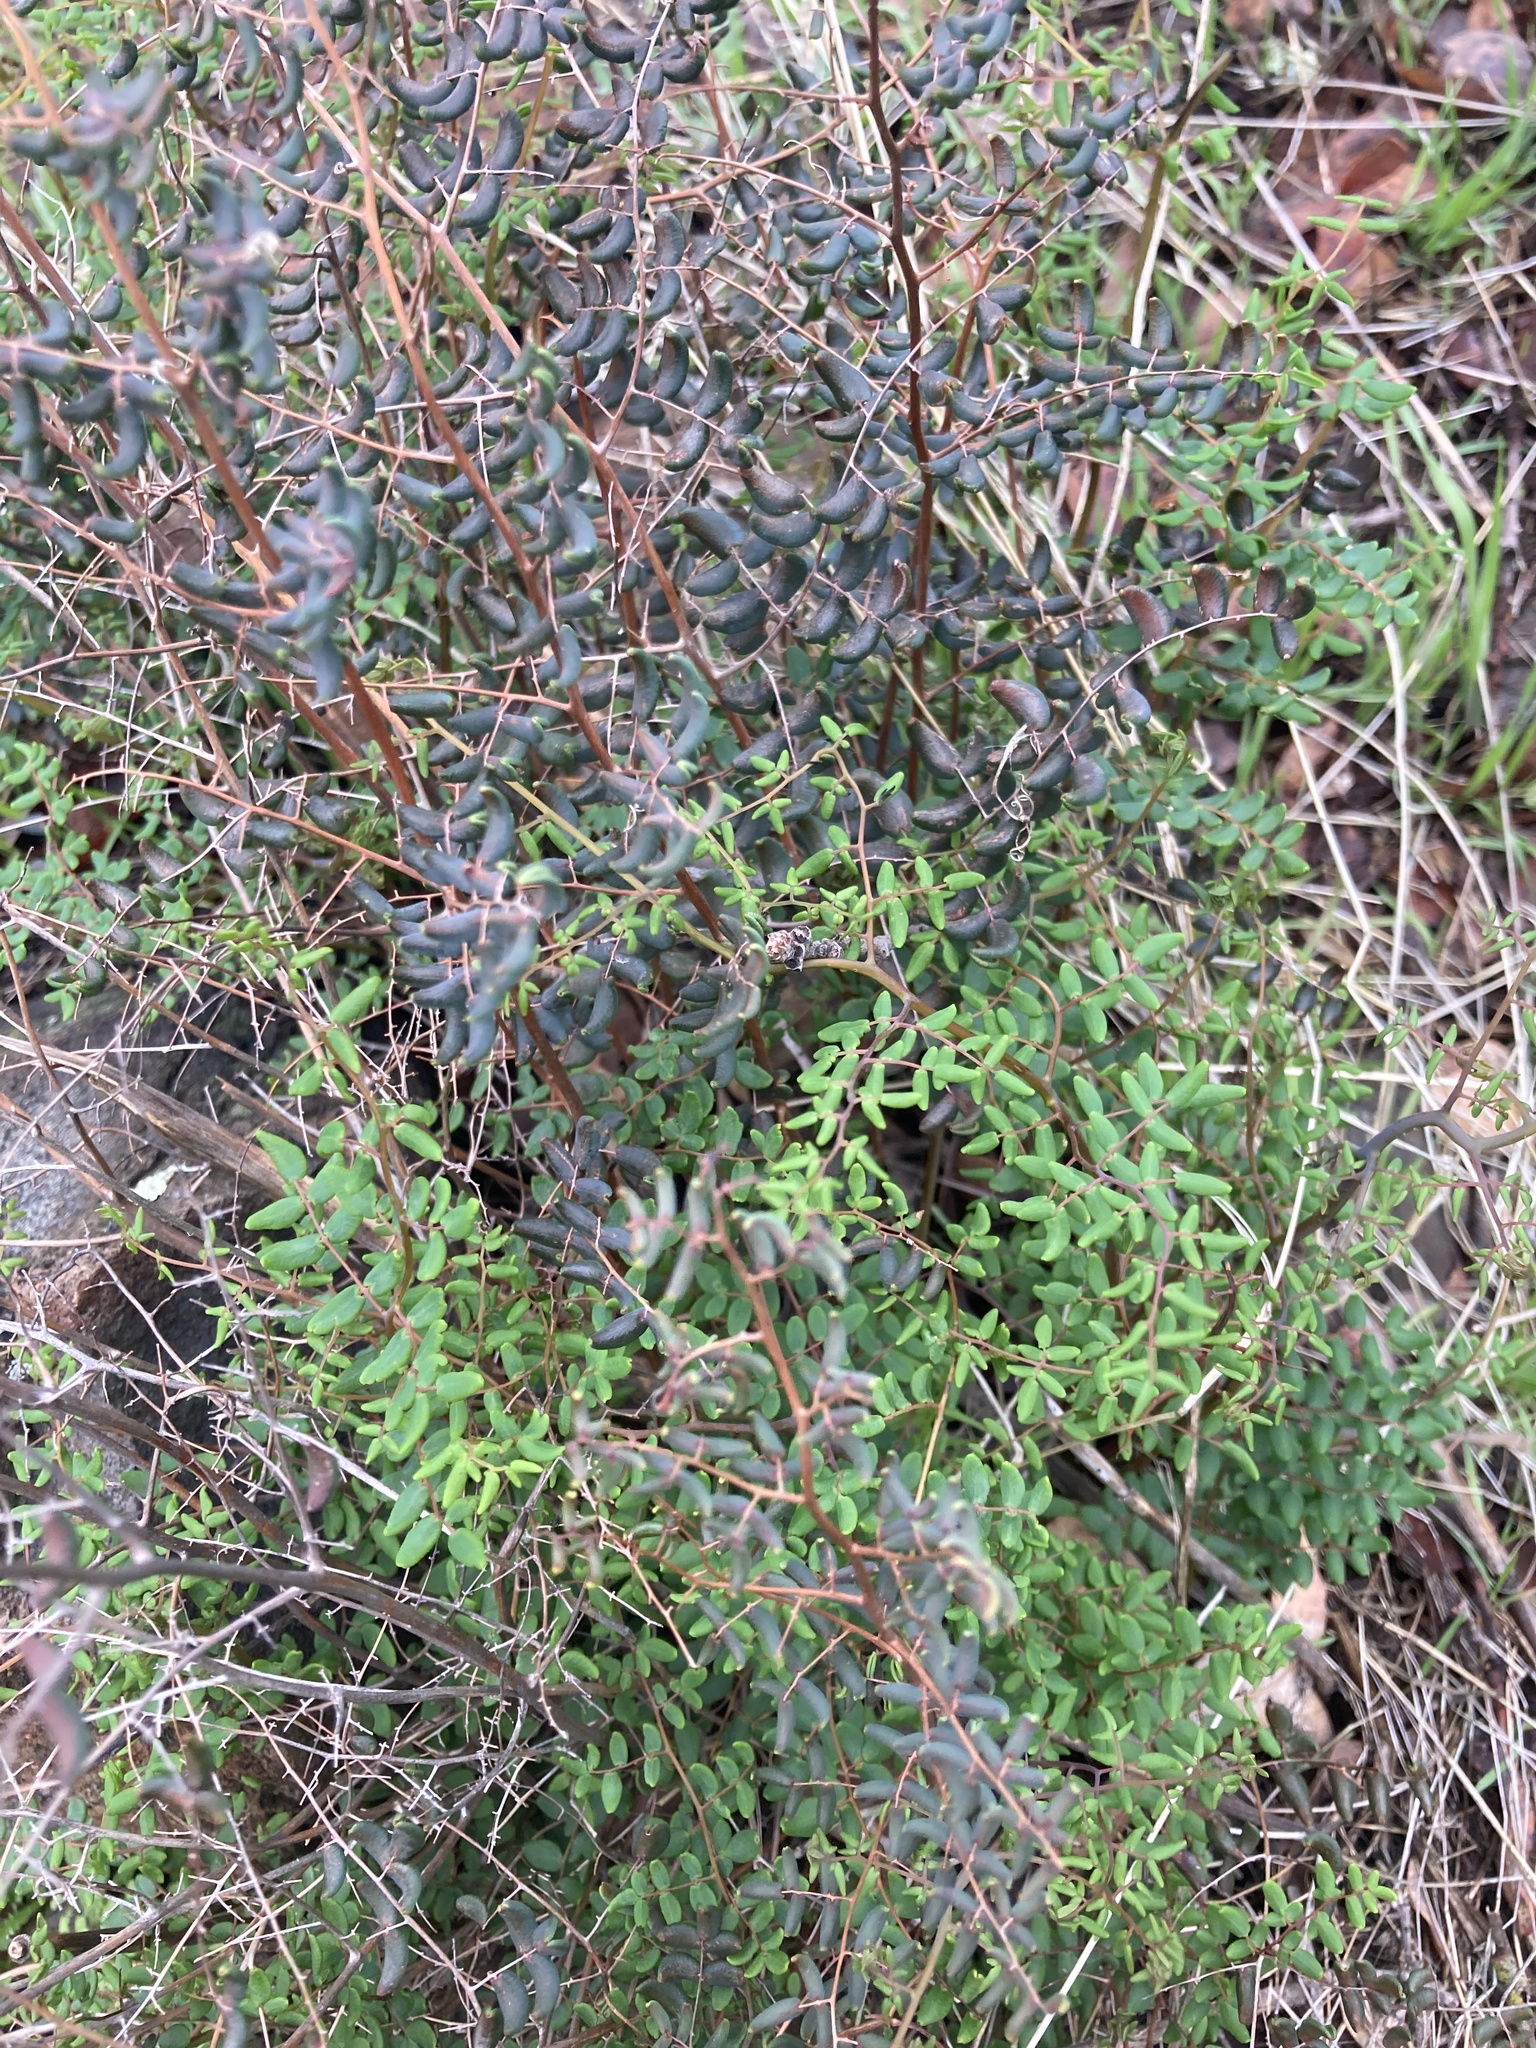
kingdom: Plantae
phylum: Tracheophyta
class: Polypodiopsida
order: Polypodiales
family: Pteridaceae
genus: Pellaea
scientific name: Pellaea andromedifolia
